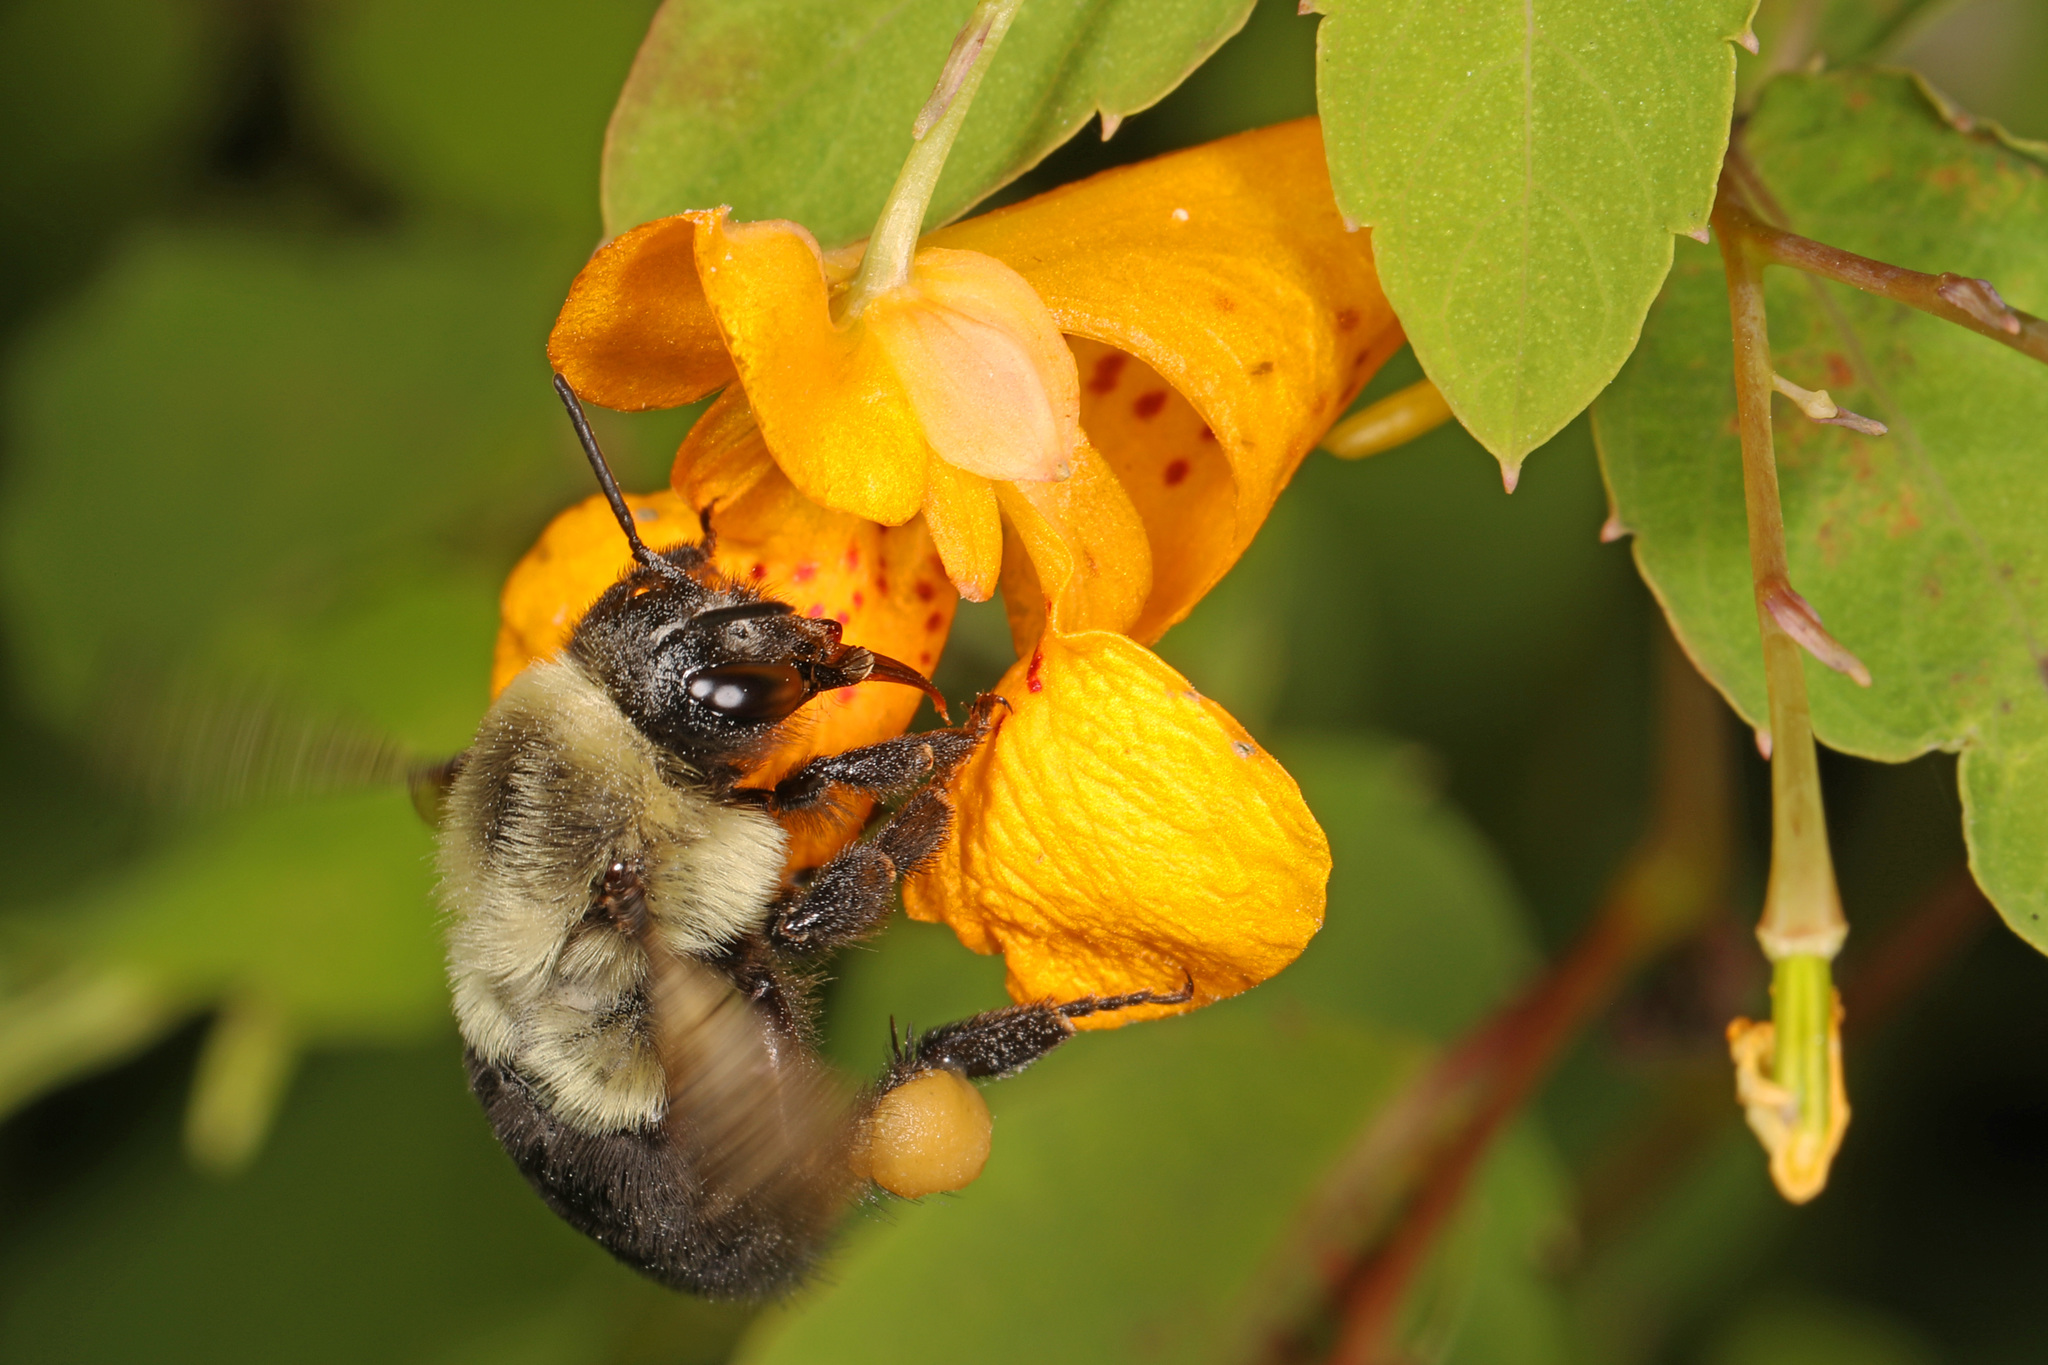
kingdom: Animalia
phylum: Arthropoda
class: Insecta
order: Hymenoptera
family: Apidae
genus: Bombus
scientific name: Bombus impatiens
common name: Common eastern bumble bee
